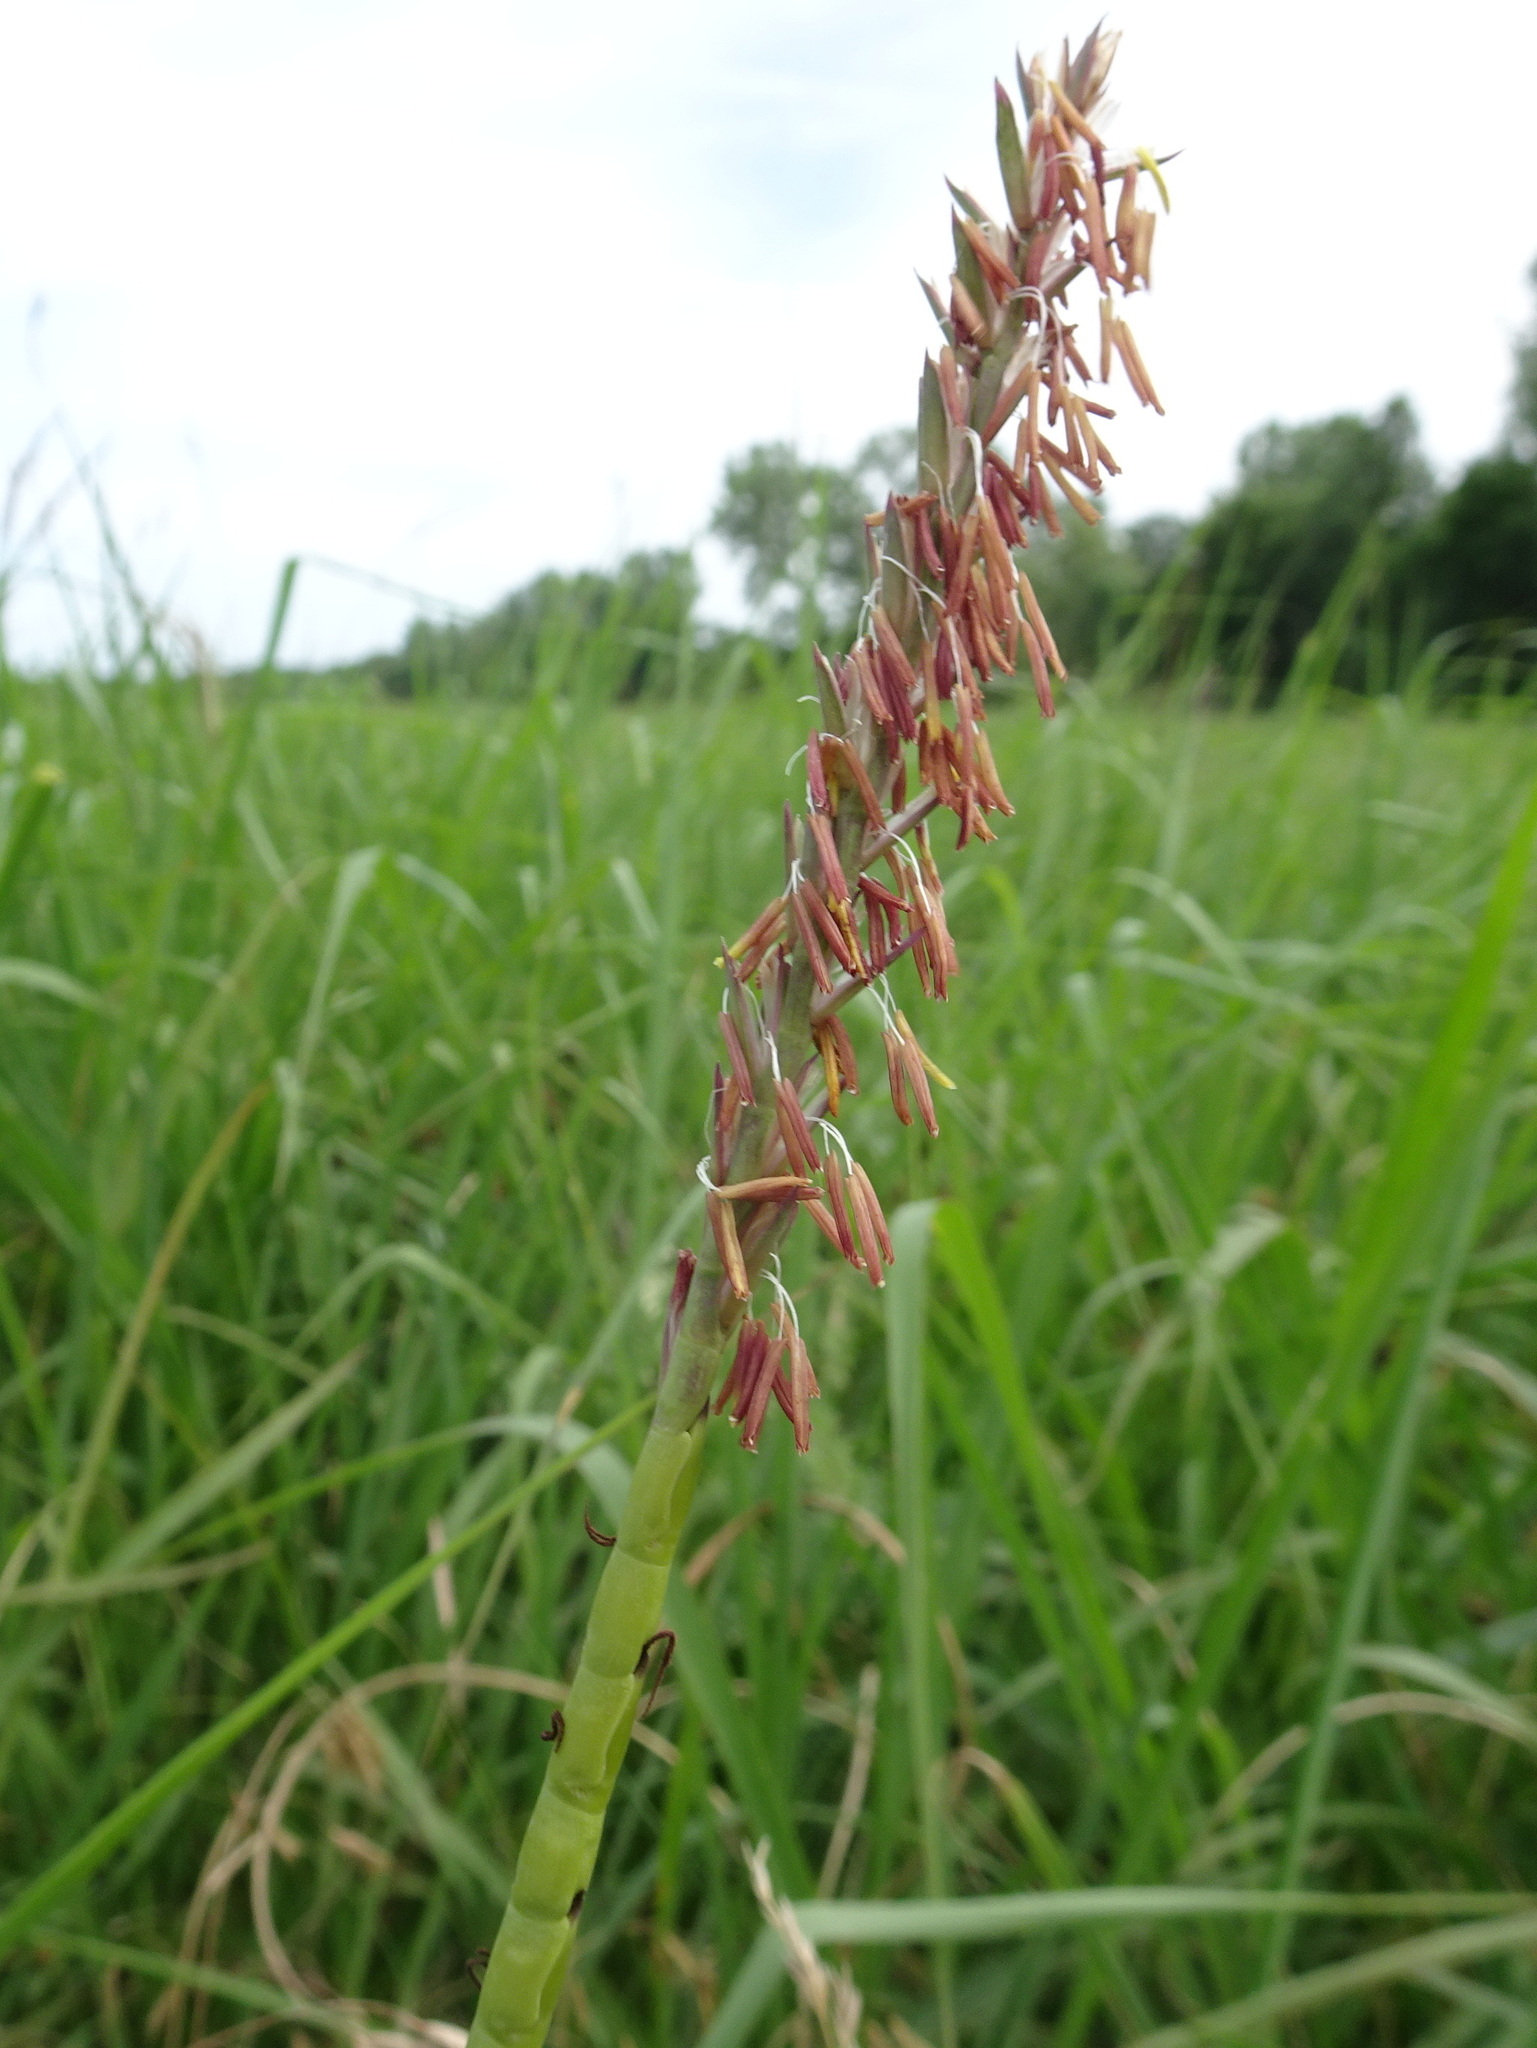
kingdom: Plantae
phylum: Tracheophyta
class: Liliopsida
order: Poales
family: Poaceae
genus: Tripsacum
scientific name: Tripsacum dactyloides
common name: Buffalo-grass
